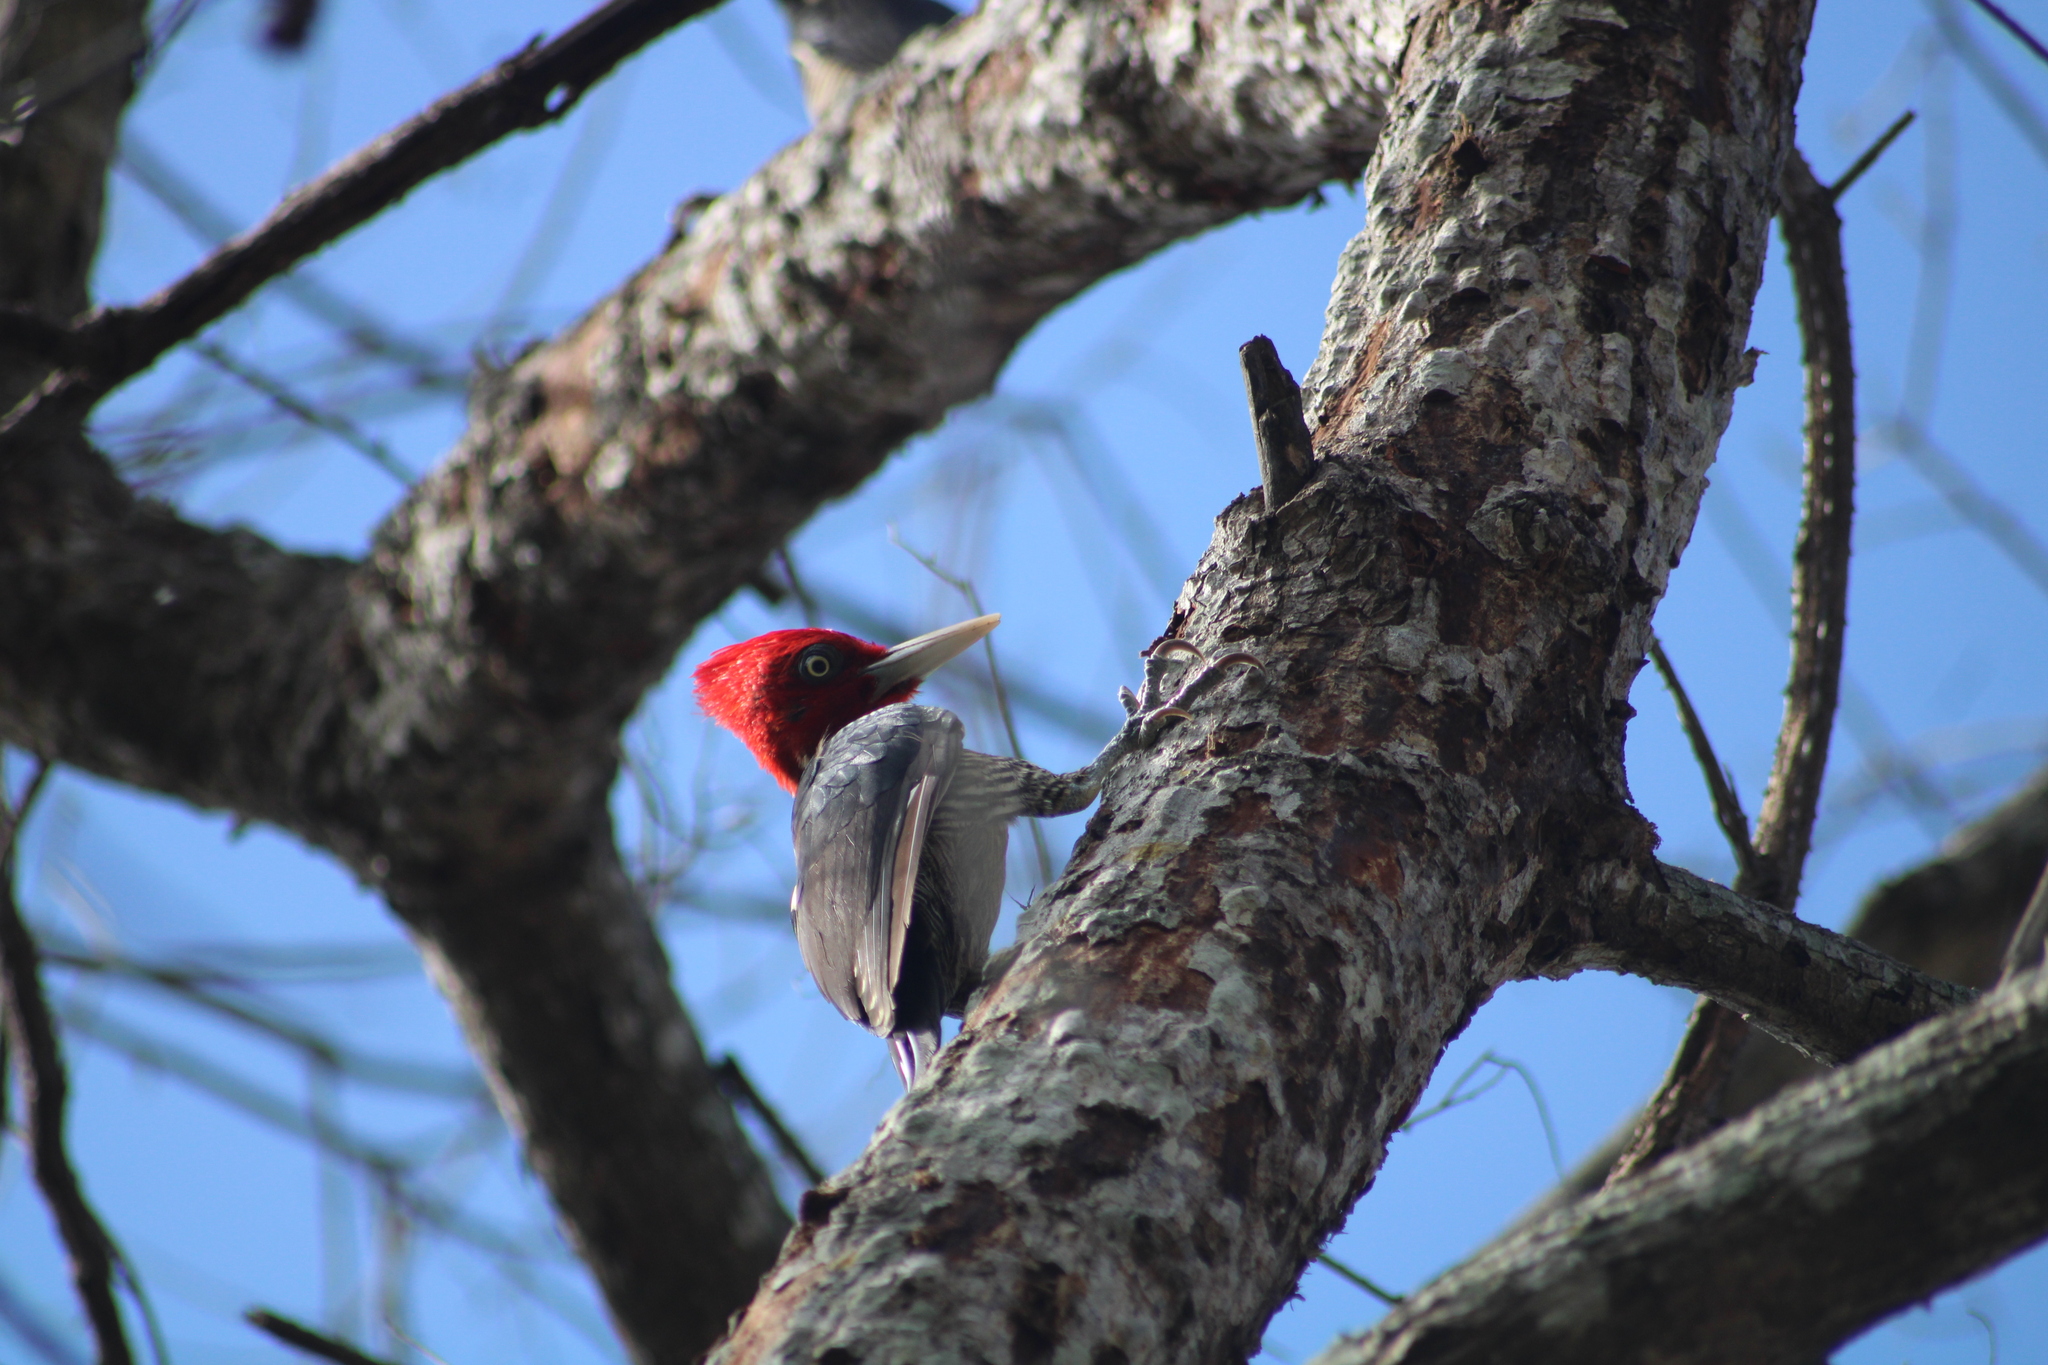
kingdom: Animalia
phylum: Chordata
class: Aves
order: Piciformes
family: Picidae
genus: Campephilus
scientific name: Campephilus guatemalensis
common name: Pale-billed woodpecker
